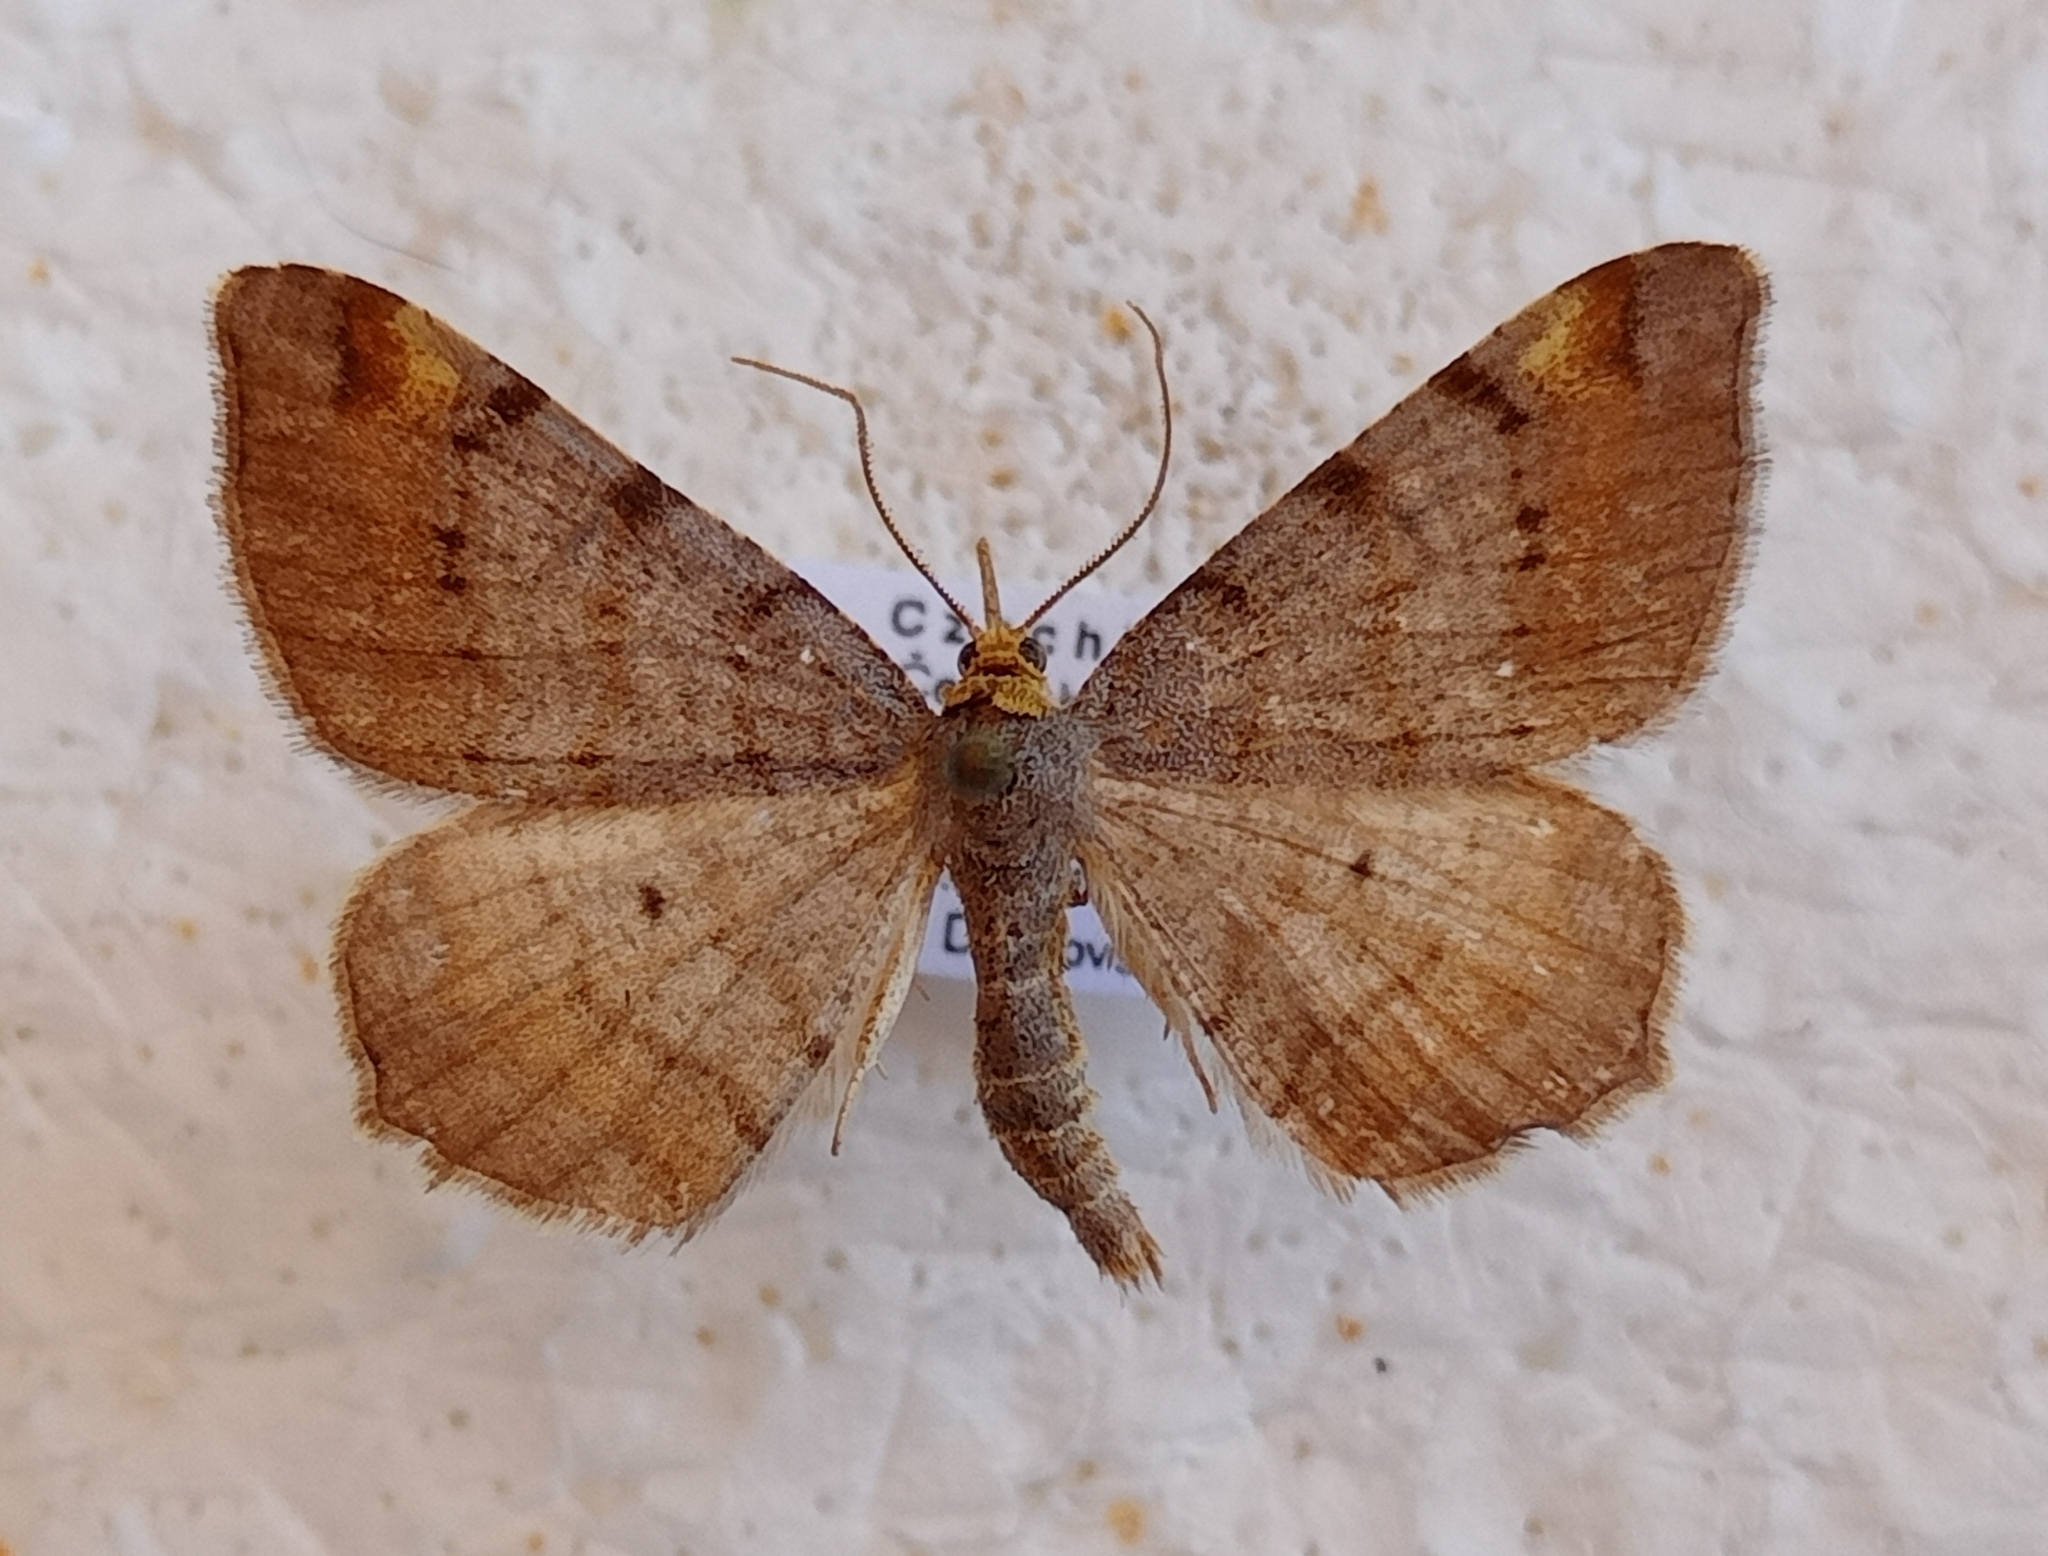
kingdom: Animalia
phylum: Arthropoda
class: Insecta
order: Lepidoptera
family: Geometridae
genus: Macaria
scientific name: Macaria liturata
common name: Tawny-barred angle
